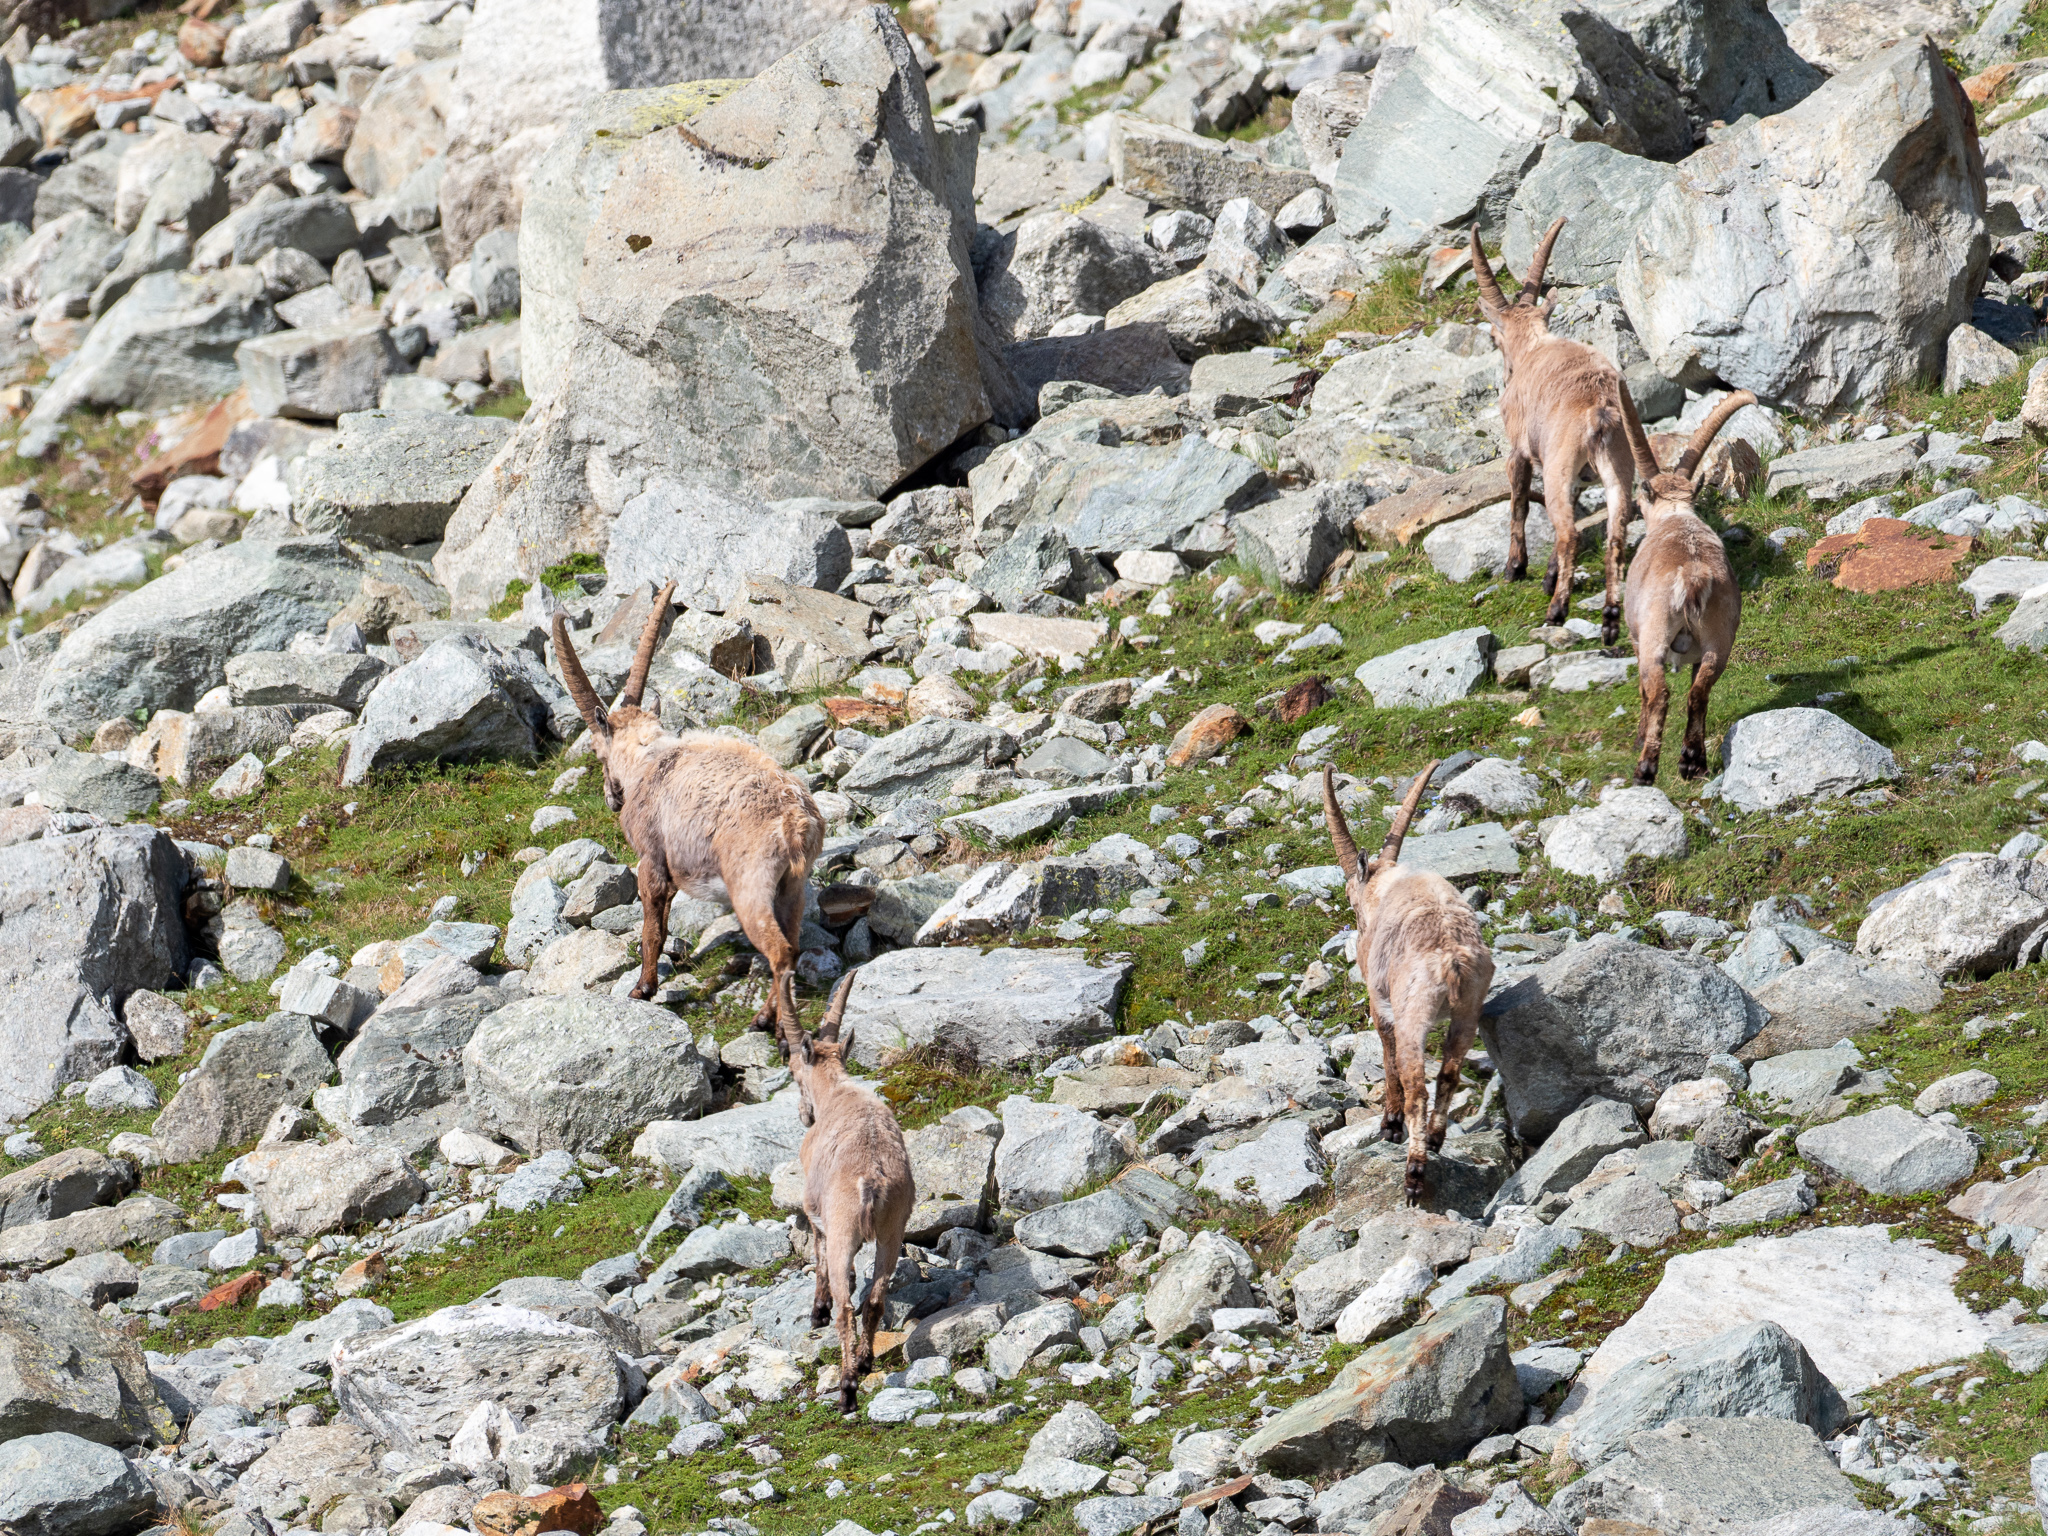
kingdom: Animalia
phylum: Chordata
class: Mammalia
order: Artiodactyla
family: Bovidae
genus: Capra
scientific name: Capra ibex
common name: Alpine ibex
